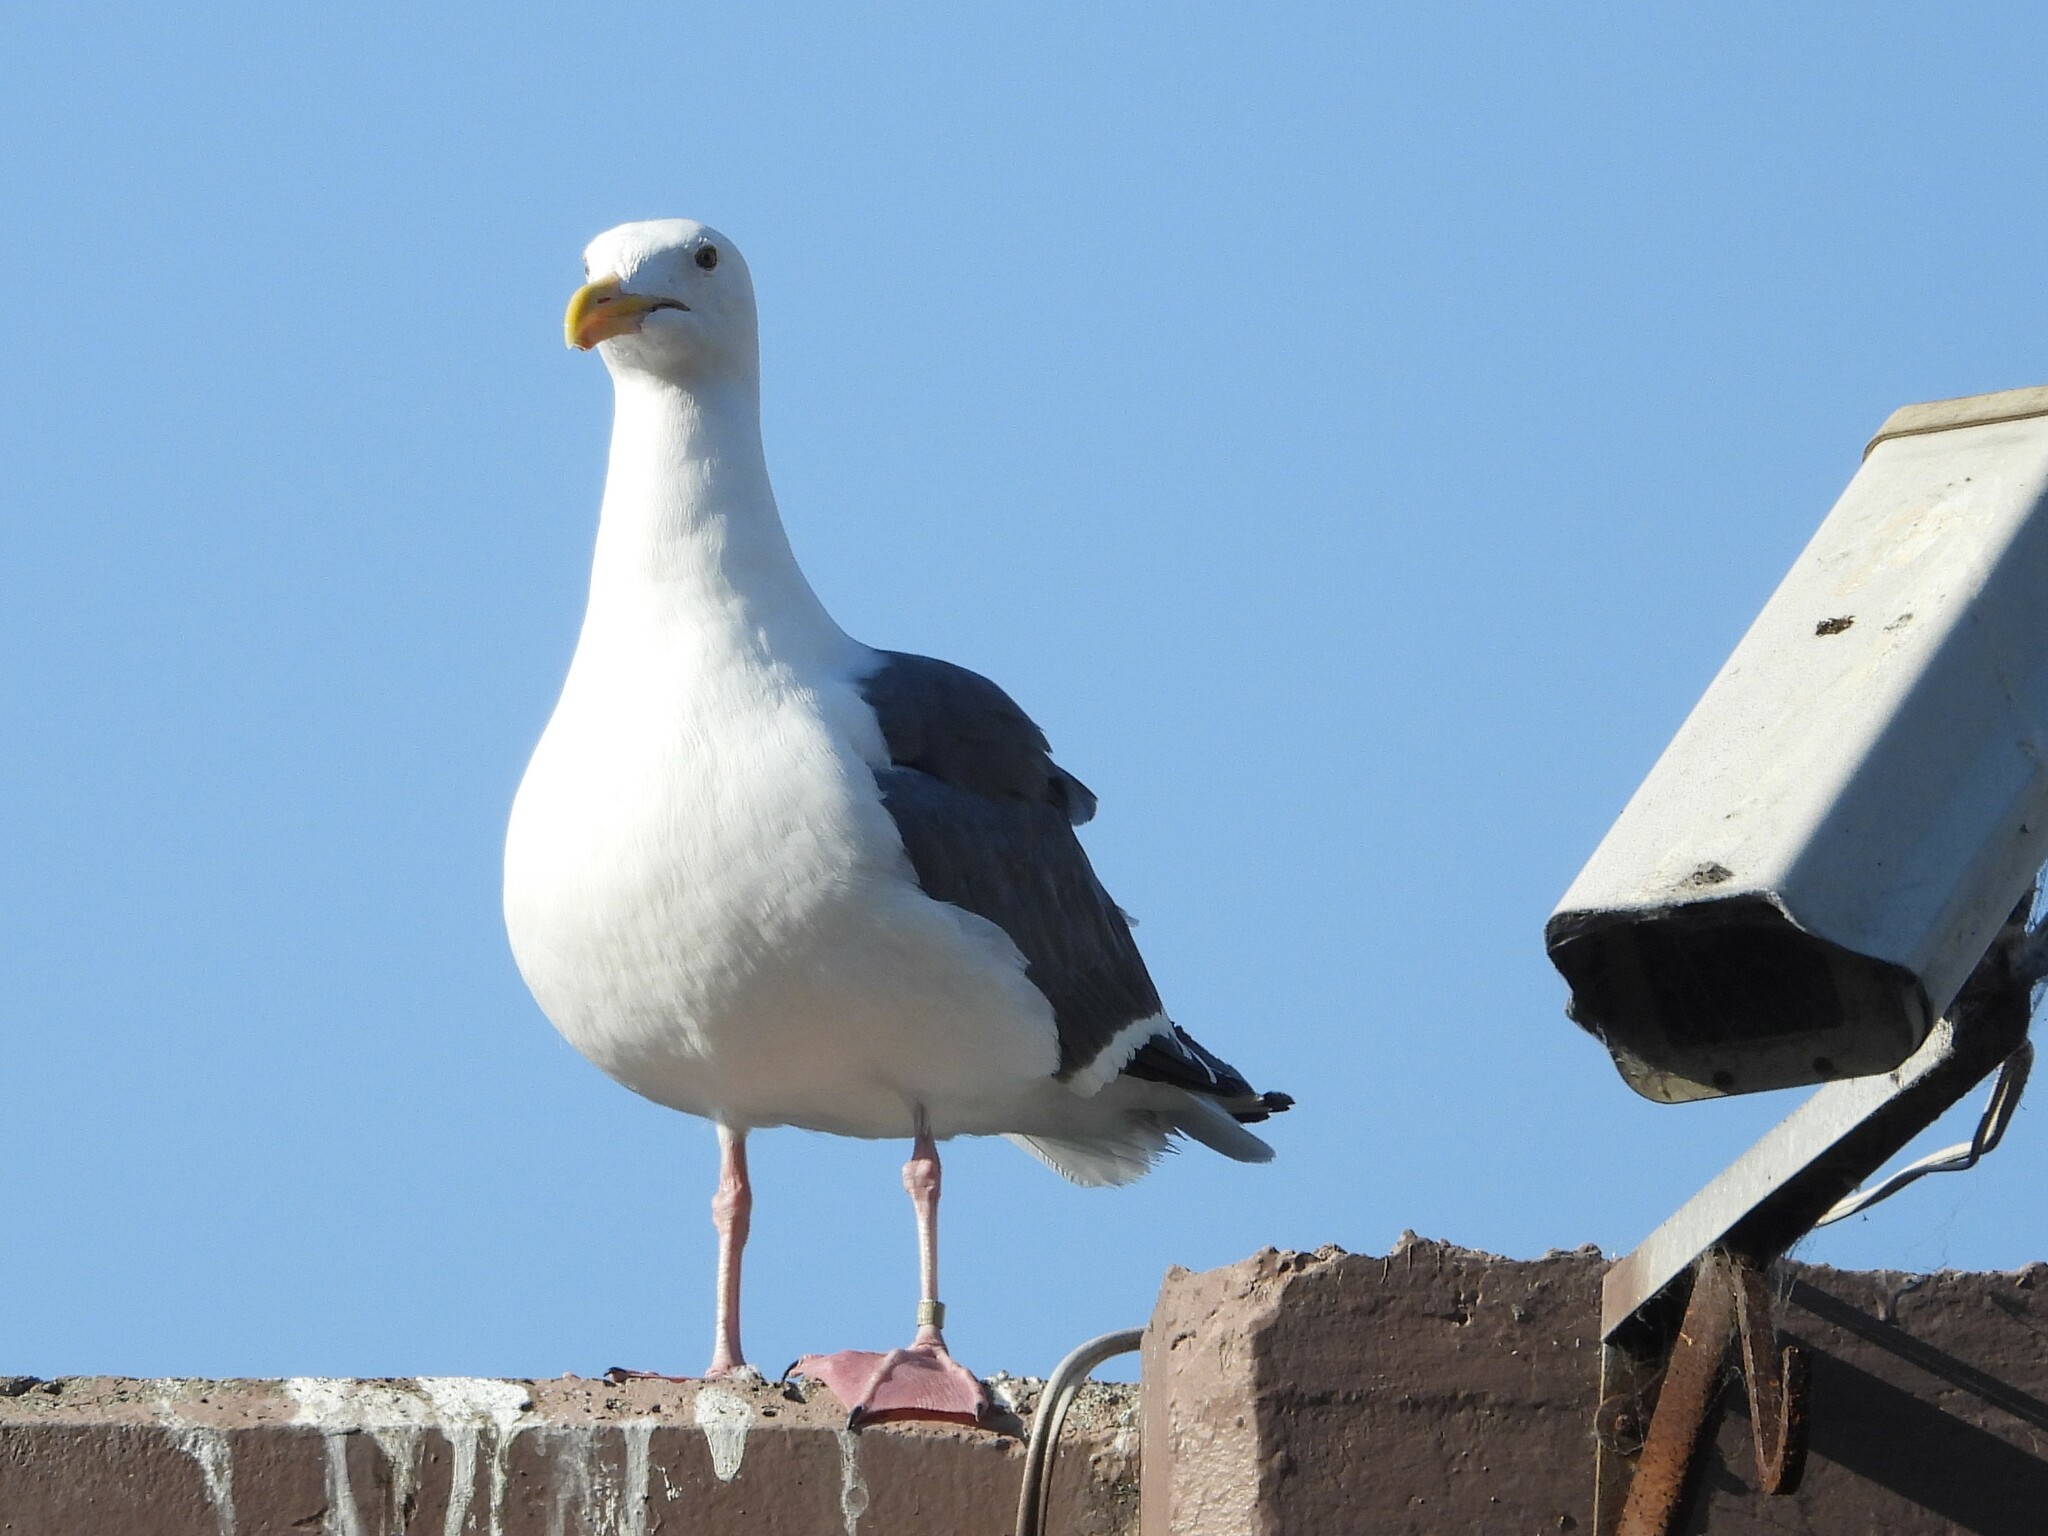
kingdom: Animalia
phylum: Chordata
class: Aves
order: Charadriiformes
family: Laridae
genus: Larus
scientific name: Larus occidentalis
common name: Western gull
